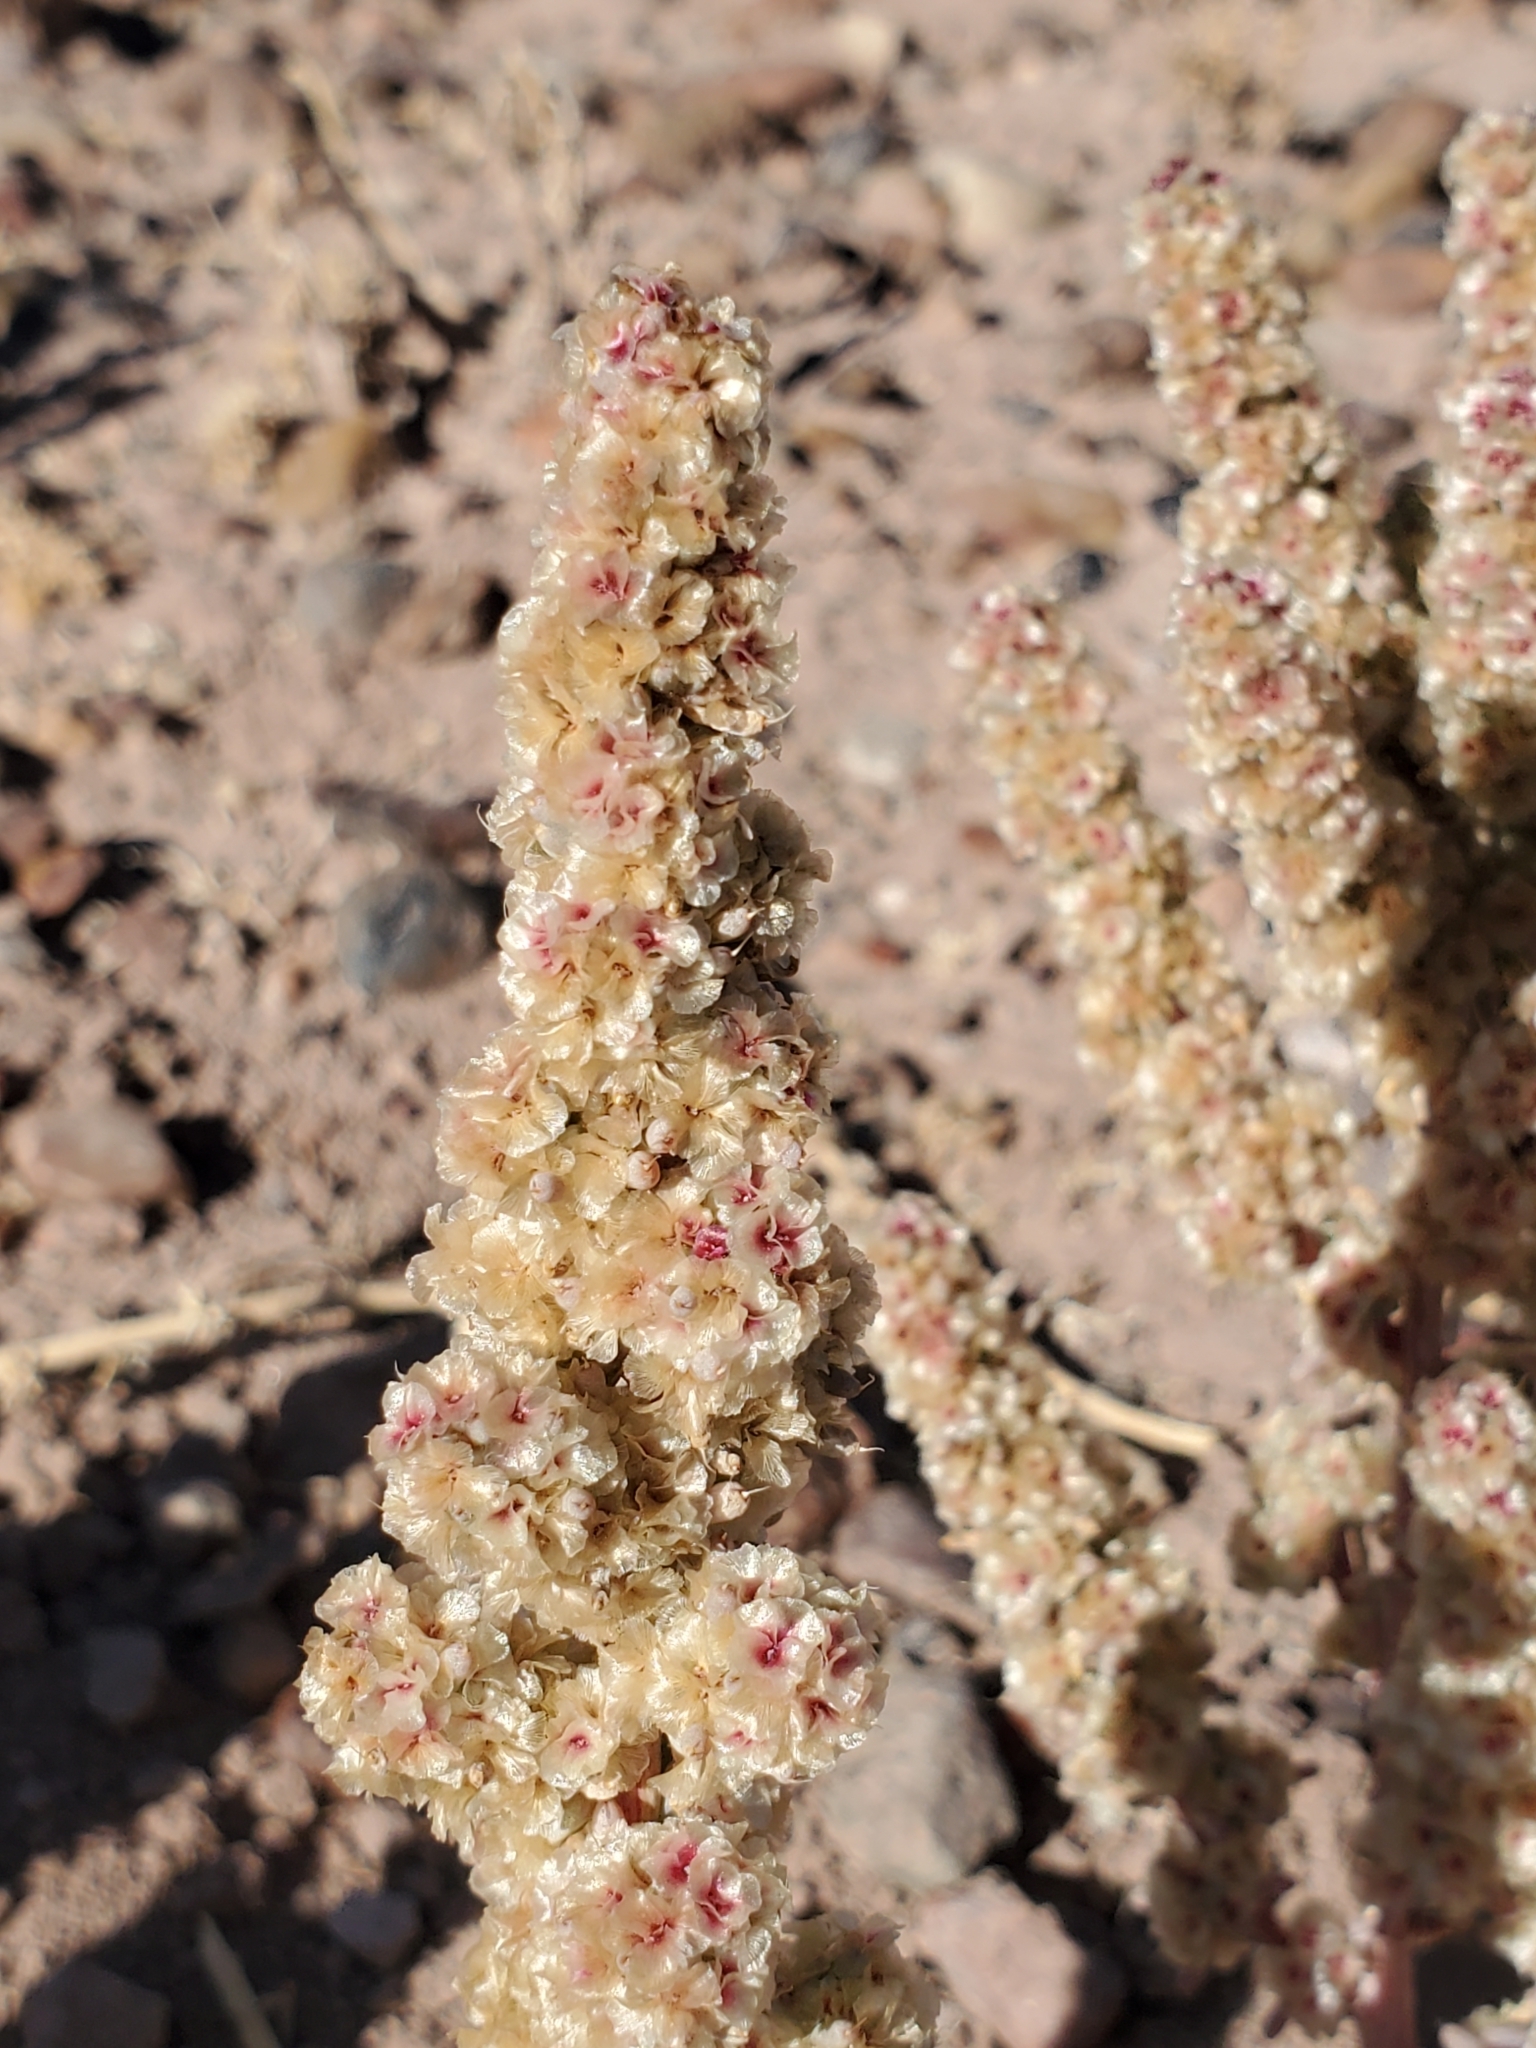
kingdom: Plantae
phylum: Tracheophyta
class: Magnoliopsida
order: Caryophyllales
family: Amaranthaceae
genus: Halogeton
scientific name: Halogeton glomeratus
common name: Saltlover
